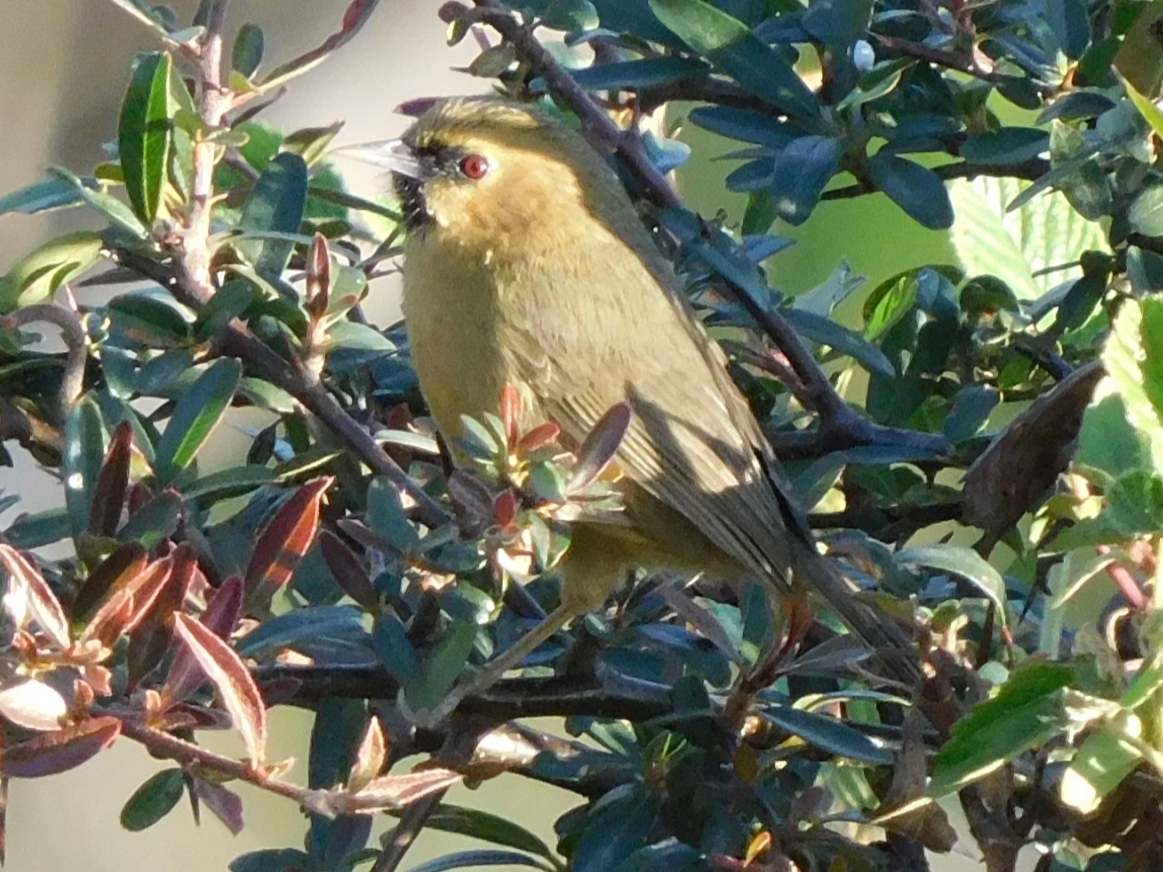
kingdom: Animalia
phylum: Chordata
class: Aves
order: Passeriformes
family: Timaliidae
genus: Stachyridopsis
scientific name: Stachyridopsis pyrrhops
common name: Black-chinned babbler
